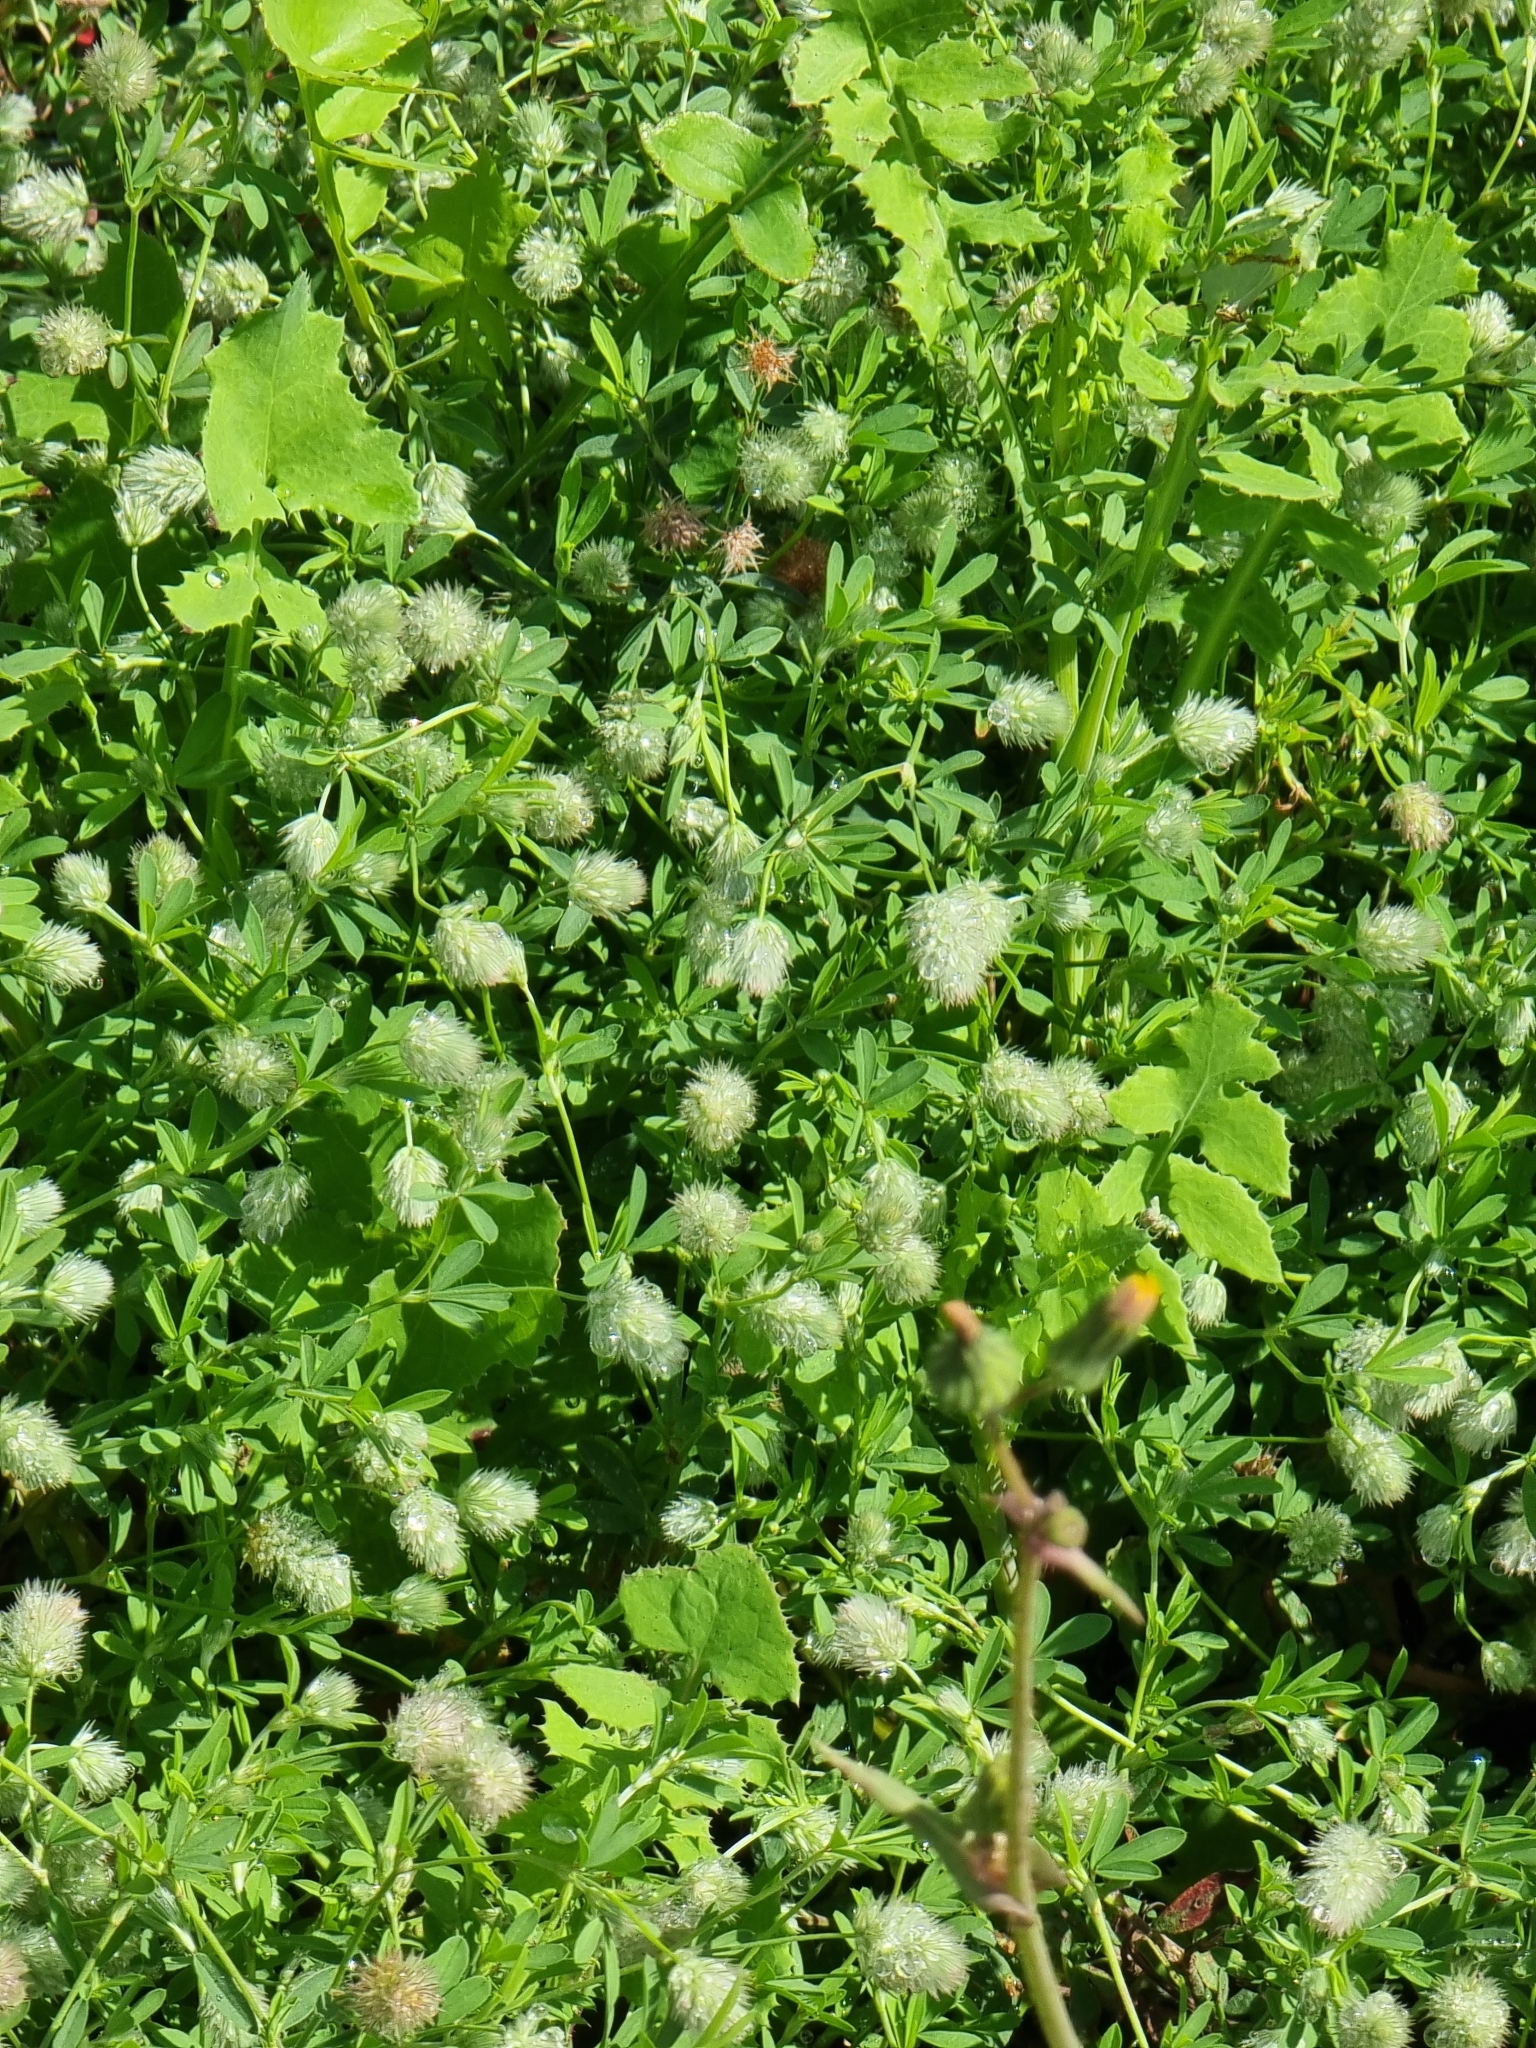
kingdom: Plantae
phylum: Tracheophyta
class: Magnoliopsida
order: Fabales
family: Fabaceae
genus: Trifolium
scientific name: Trifolium arvense
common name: Hare's-foot clover
